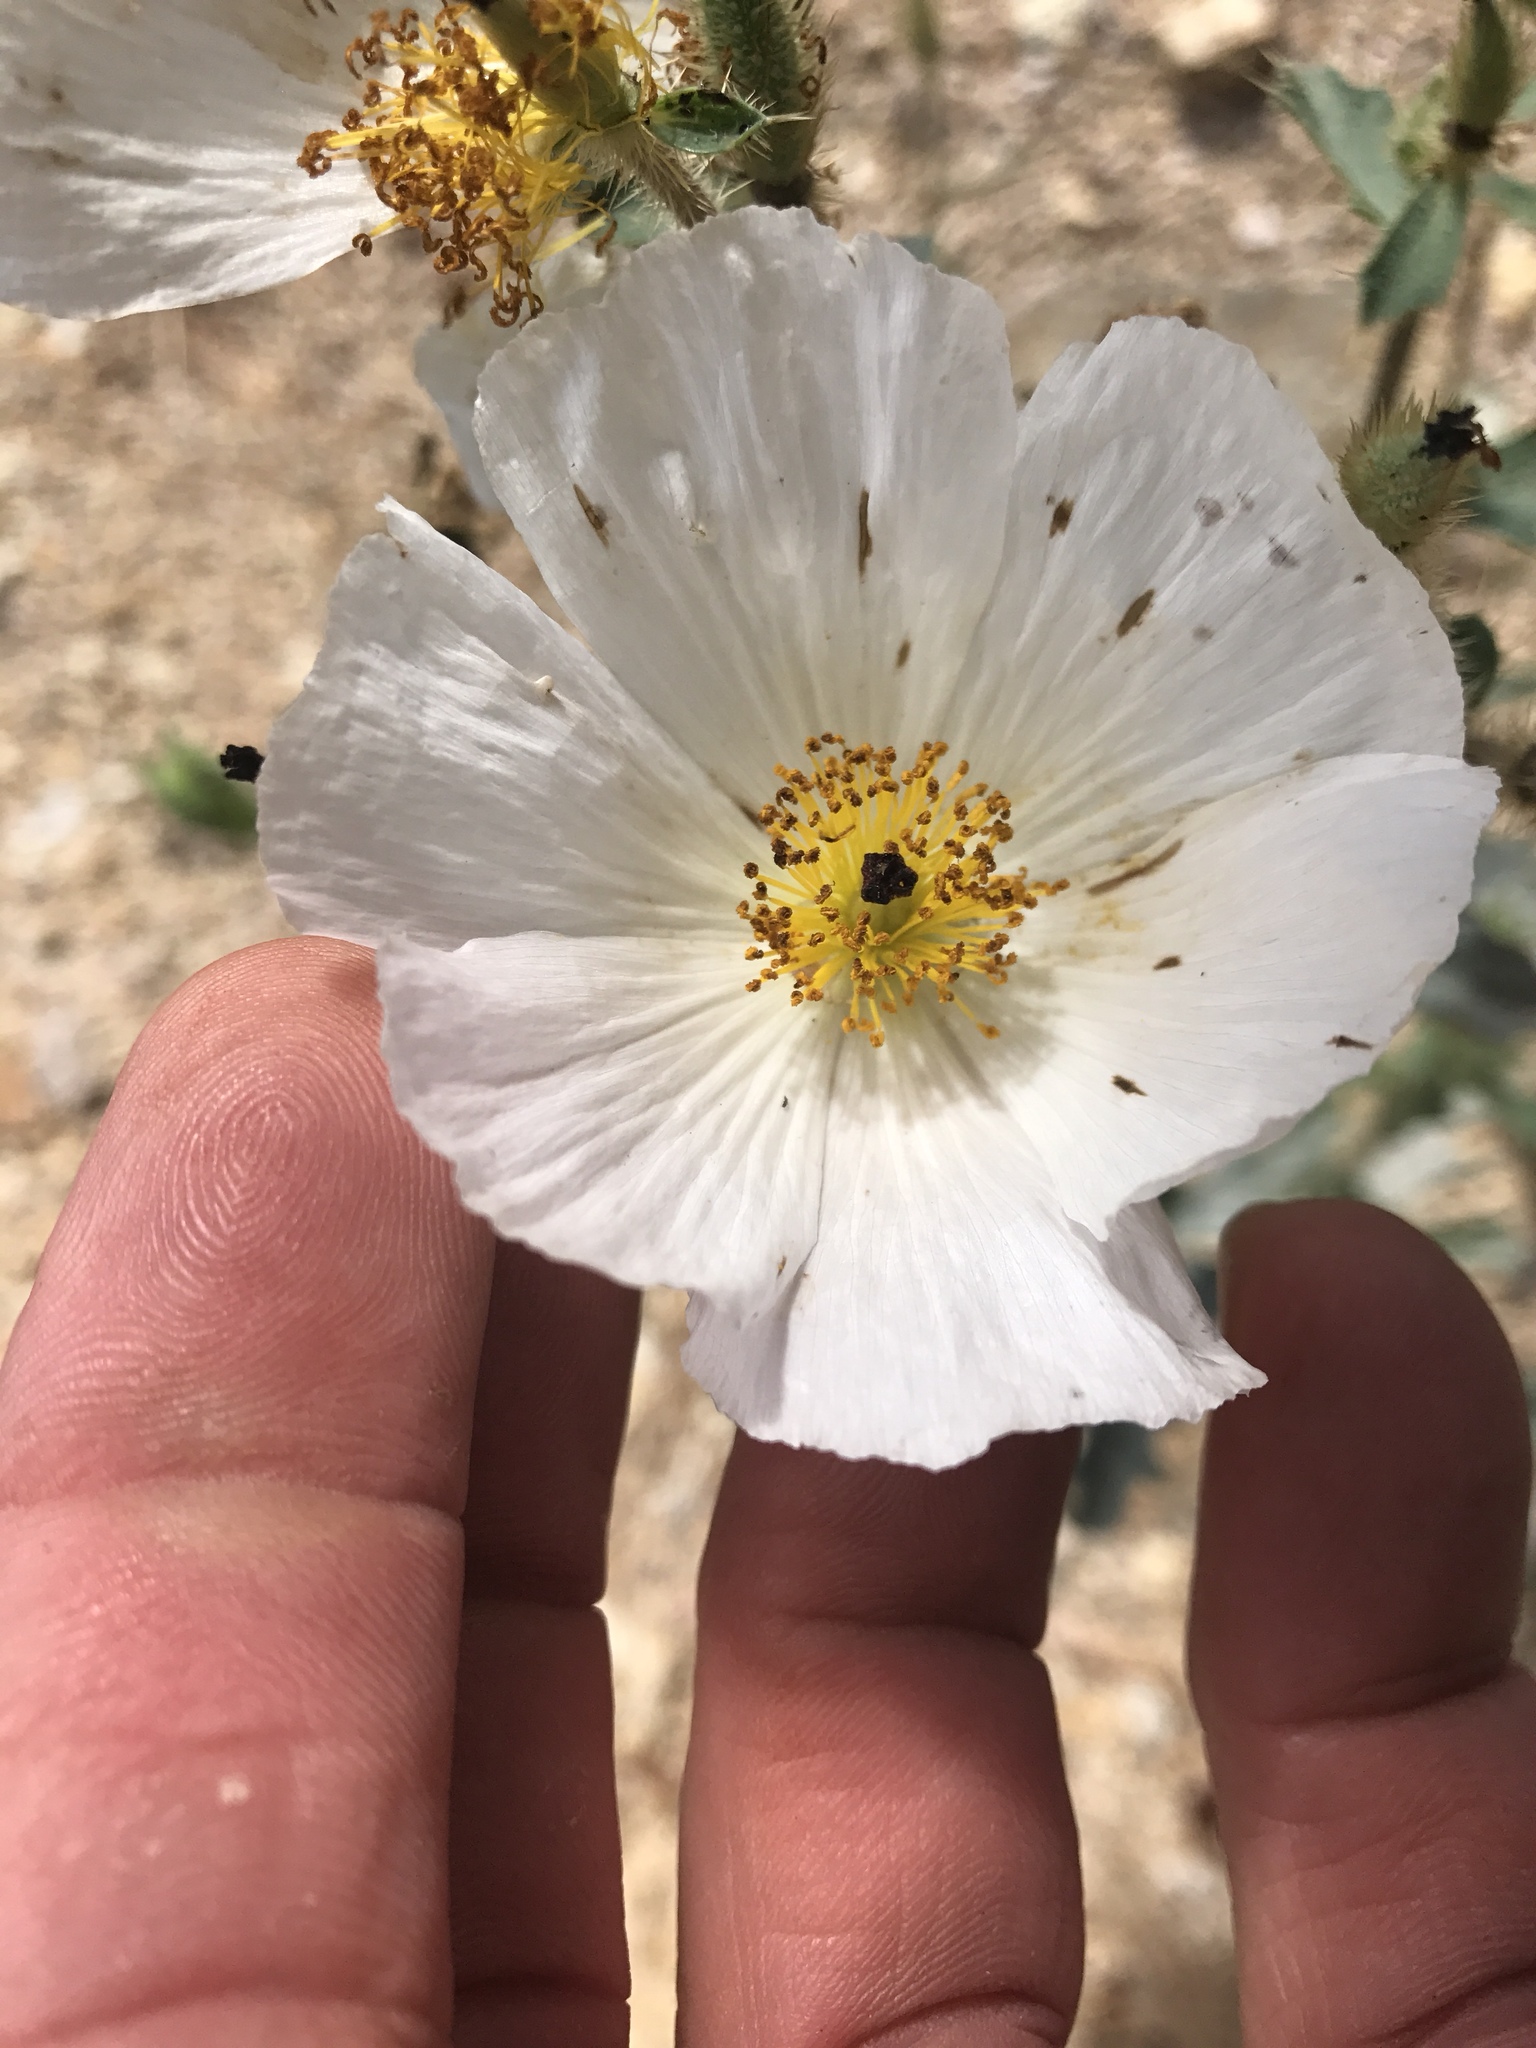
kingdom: Plantae
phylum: Tracheophyta
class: Magnoliopsida
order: Ranunculales
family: Papaveraceae
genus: Argemone
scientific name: Argemone munita
